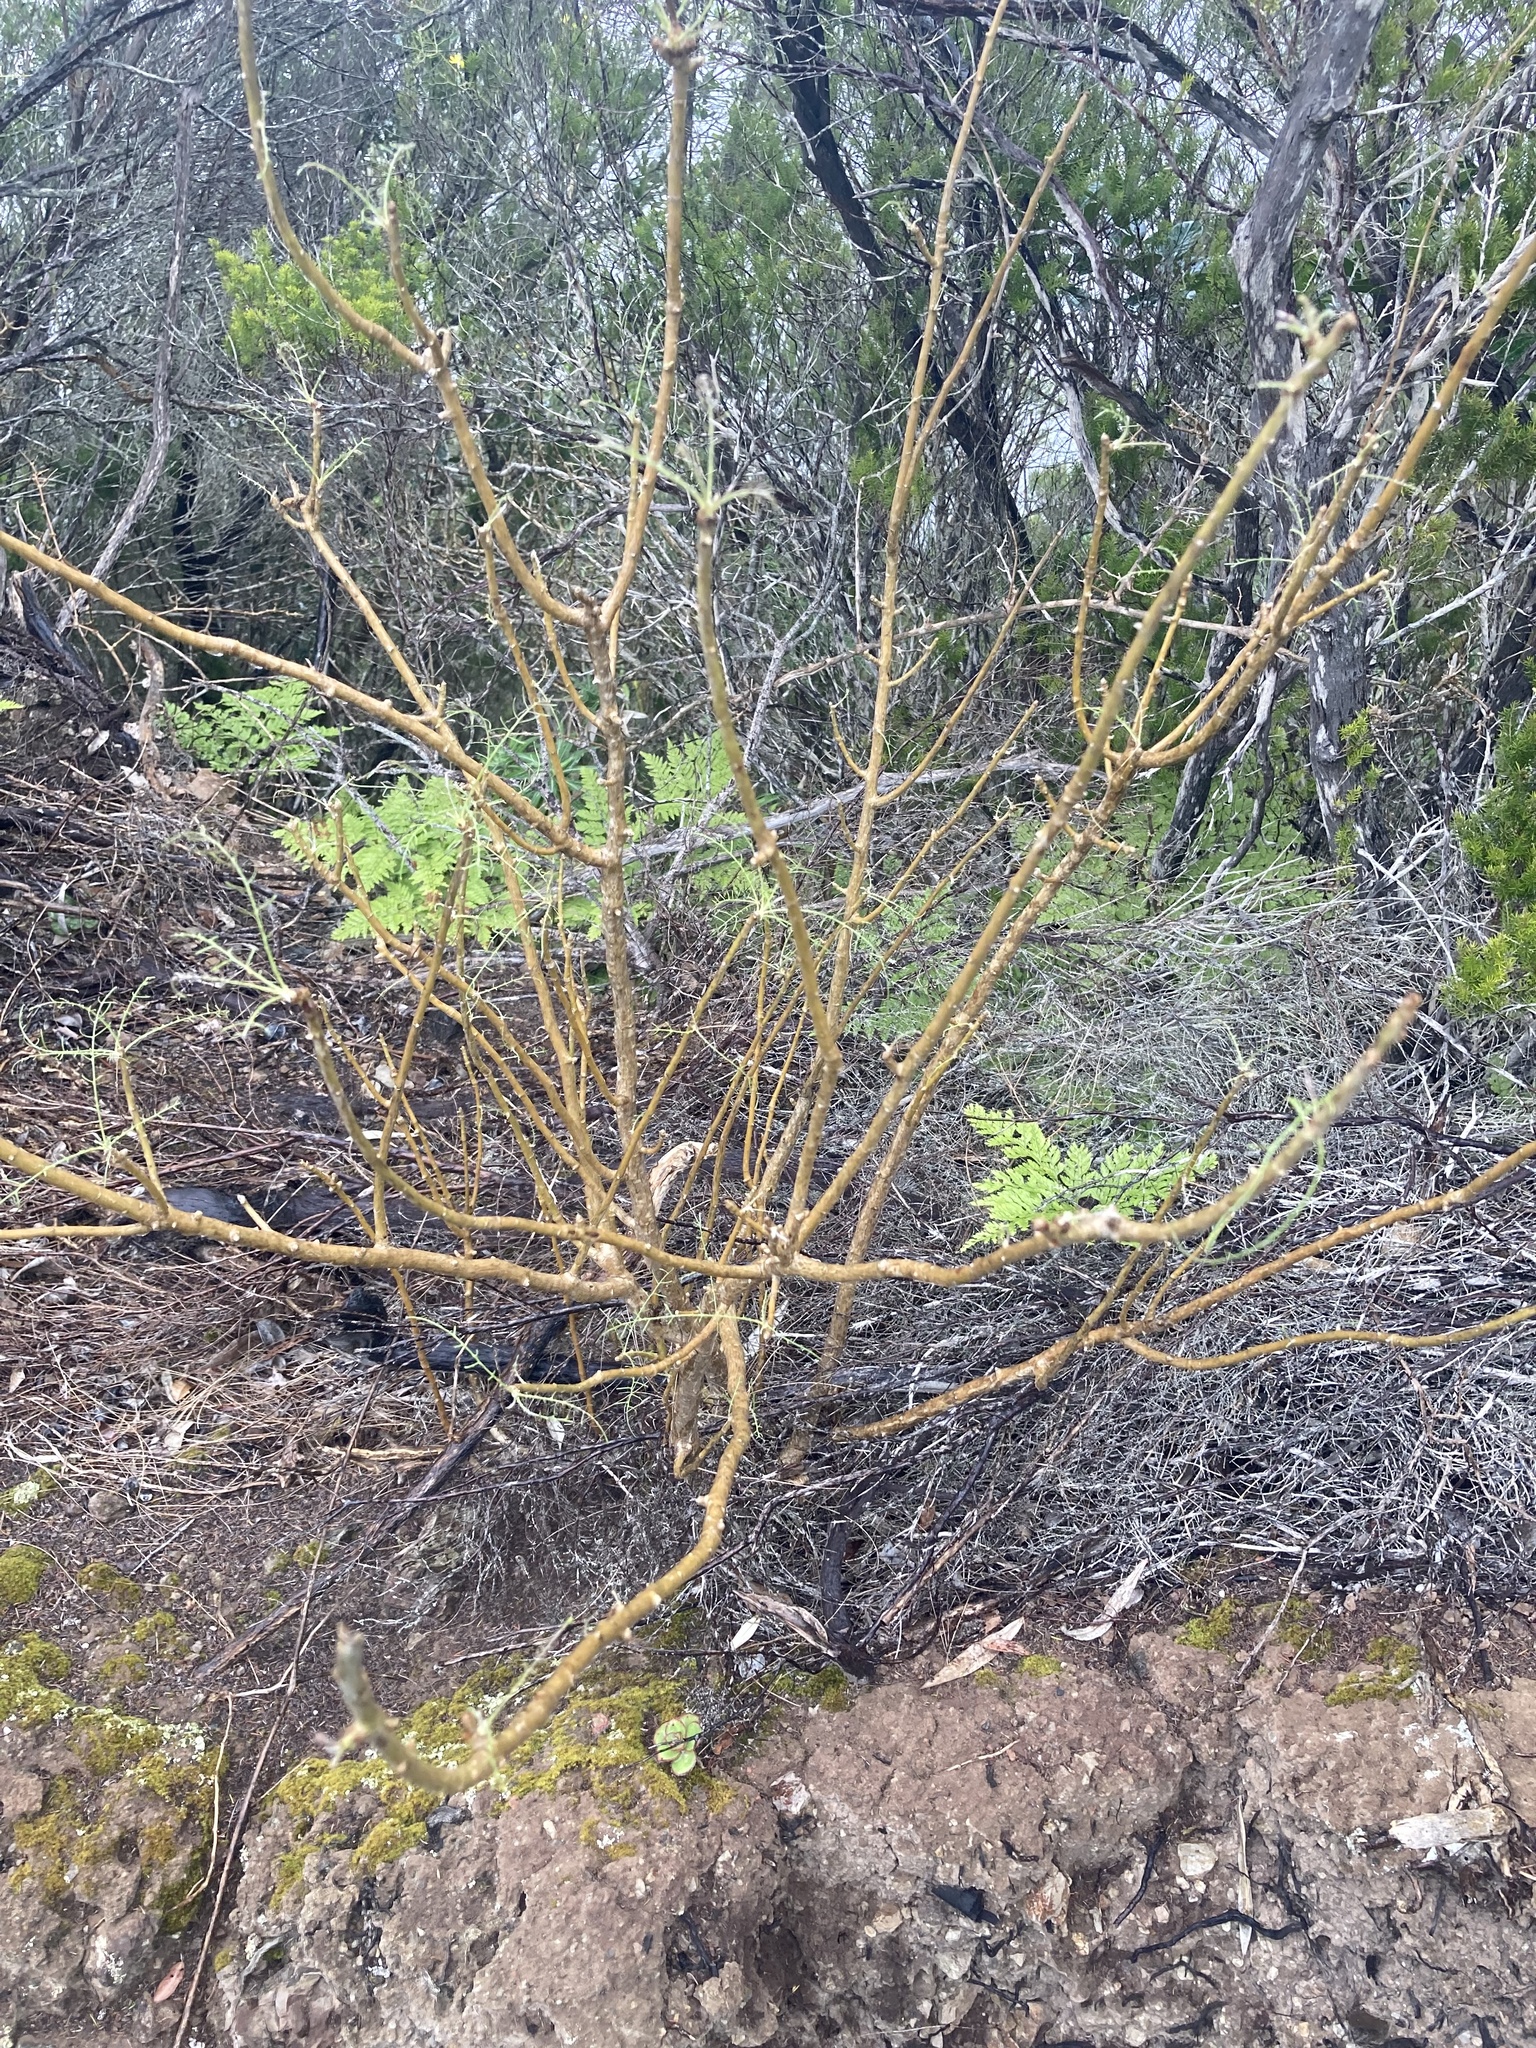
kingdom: Plantae
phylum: Tracheophyta
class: Magnoliopsida
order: Asterales
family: Asteraceae
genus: Sonchus
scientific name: Sonchus leptocephalus
